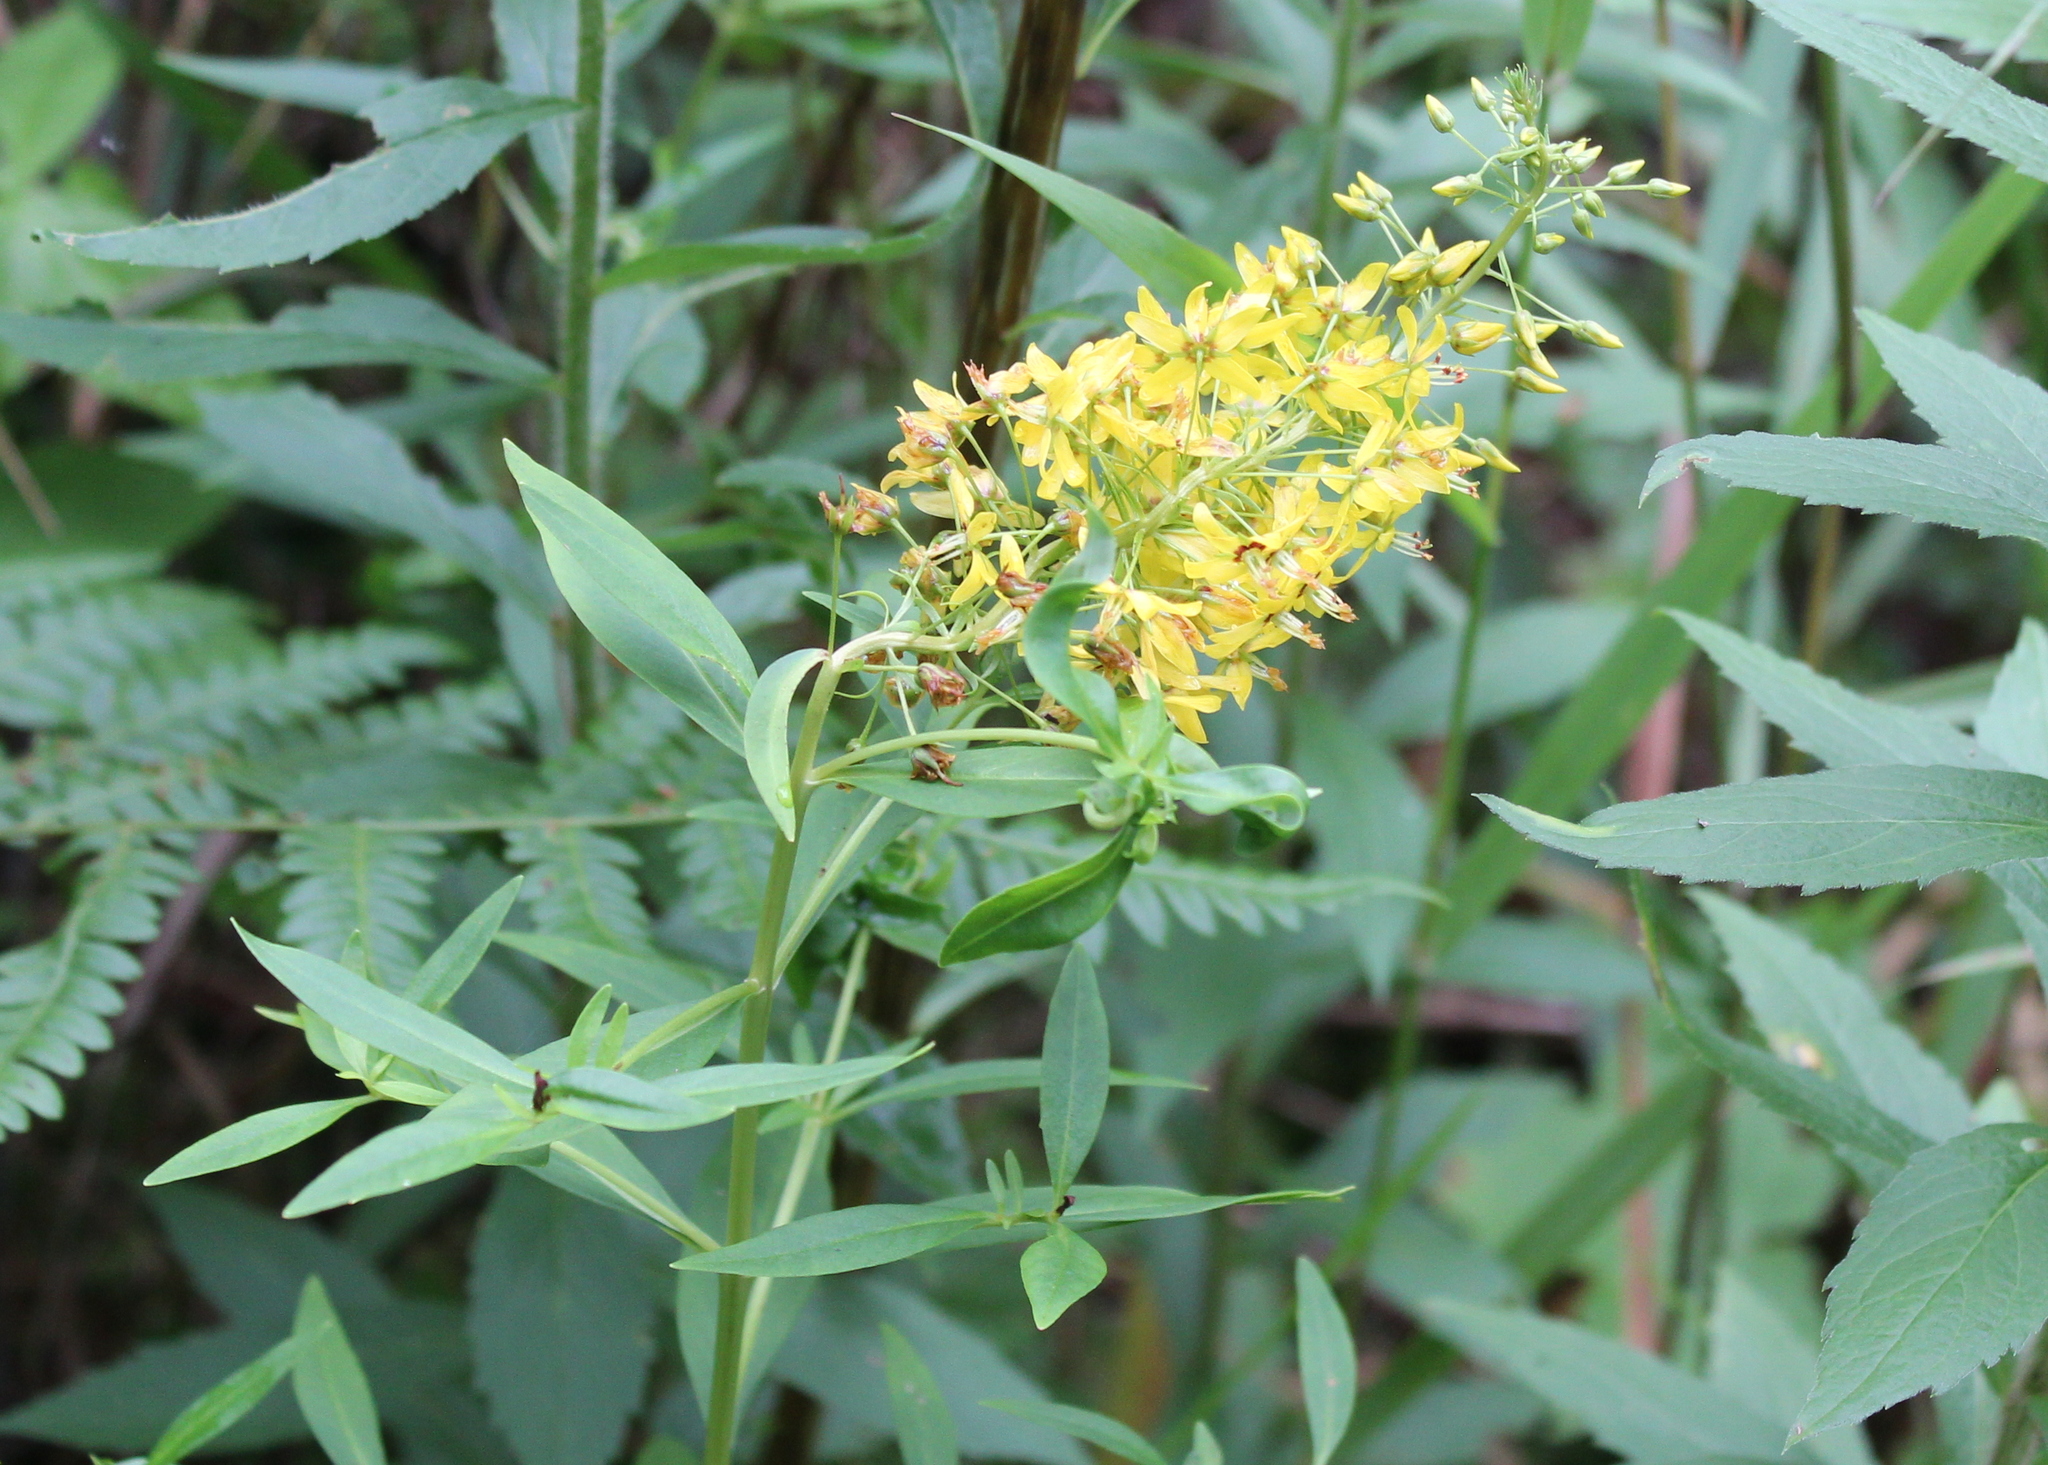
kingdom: Plantae
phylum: Tracheophyta
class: Magnoliopsida
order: Ericales
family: Primulaceae
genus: Lysimachia
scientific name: Lysimachia terrestris
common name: Lake loosestrife
